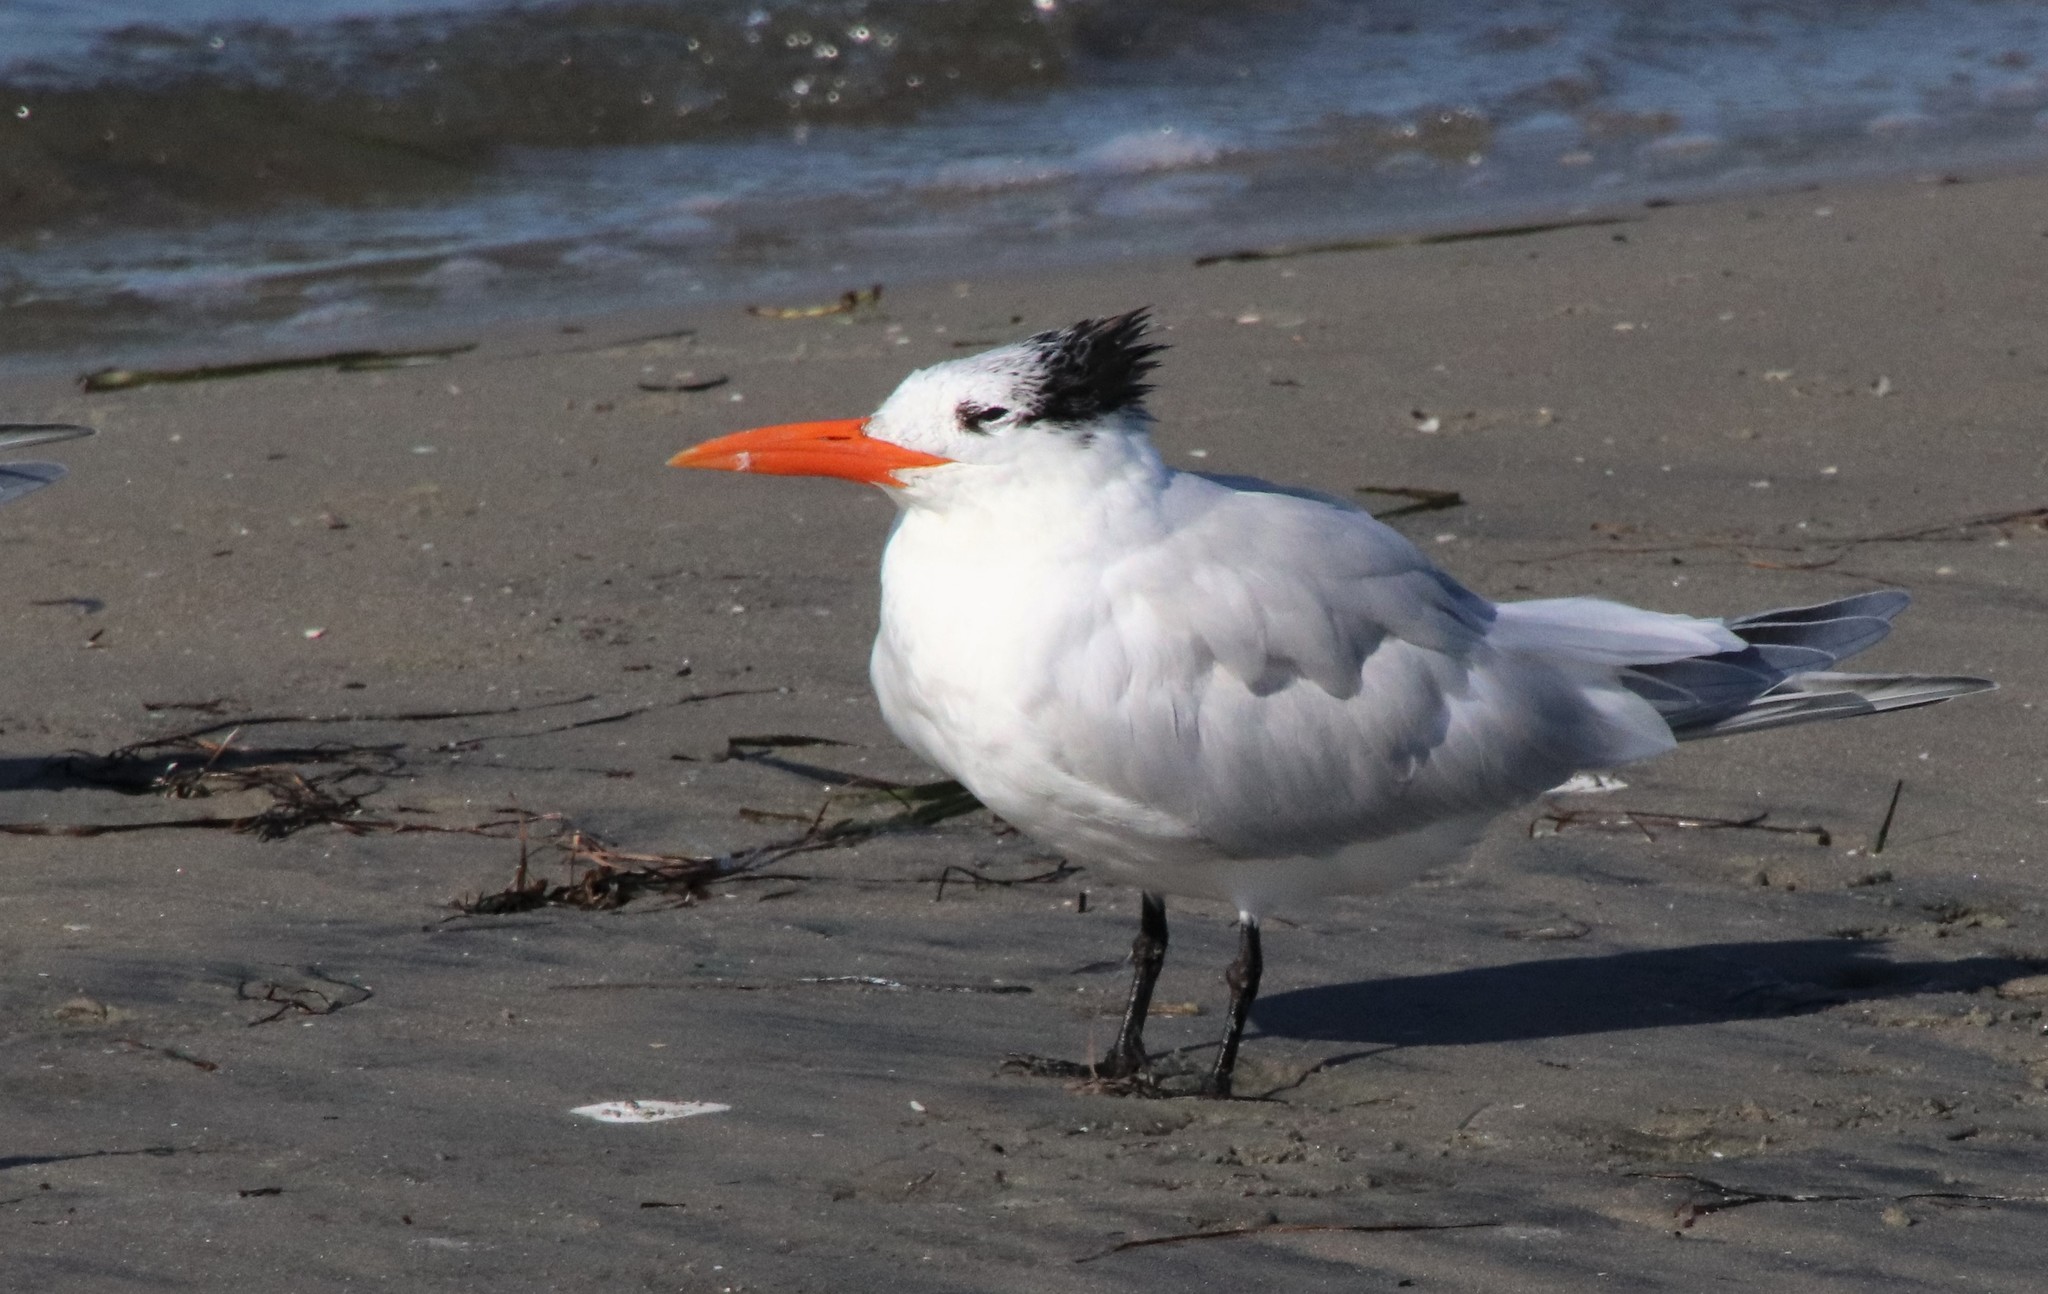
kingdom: Animalia
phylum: Chordata
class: Aves
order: Charadriiformes
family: Laridae
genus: Thalasseus
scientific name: Thalasseus maximus
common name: Royal tern
